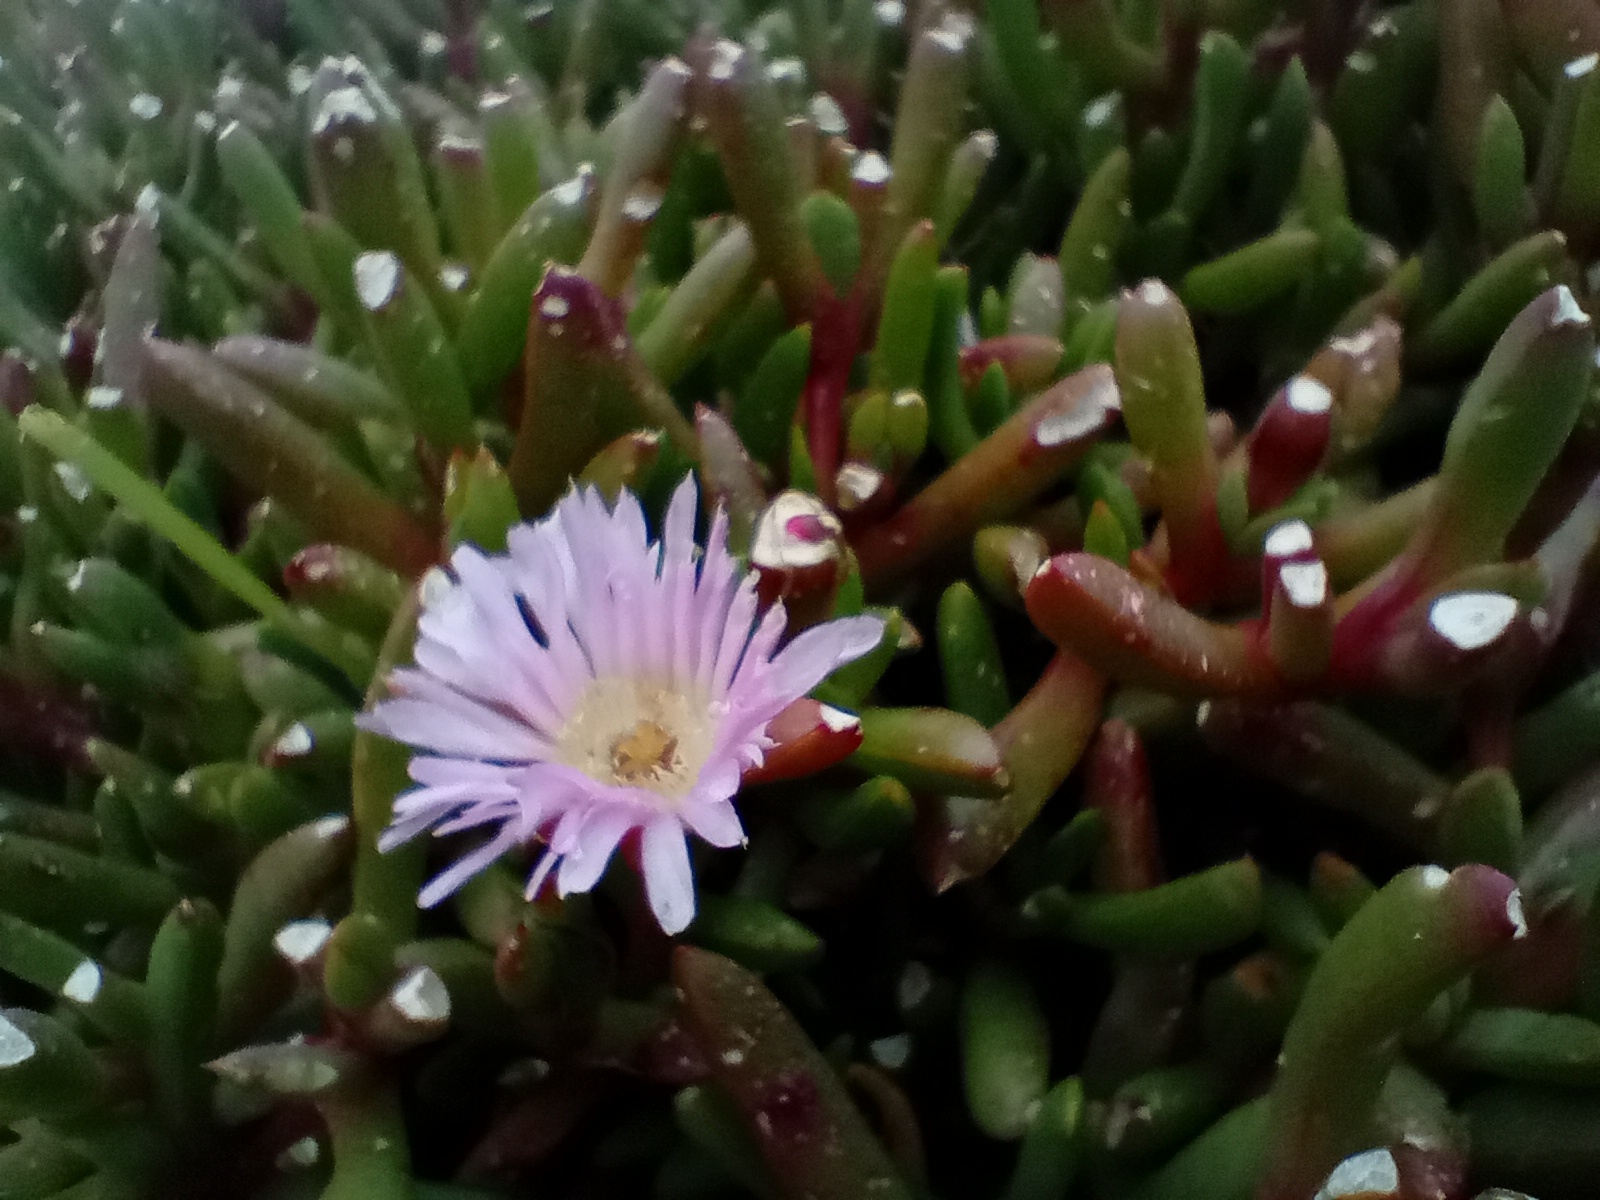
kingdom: Plantae
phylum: Tracheophyta
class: Magnoliopsida
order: Caryophyllales
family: Aizoaceae
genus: Disphyma
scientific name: Disphyma australe
